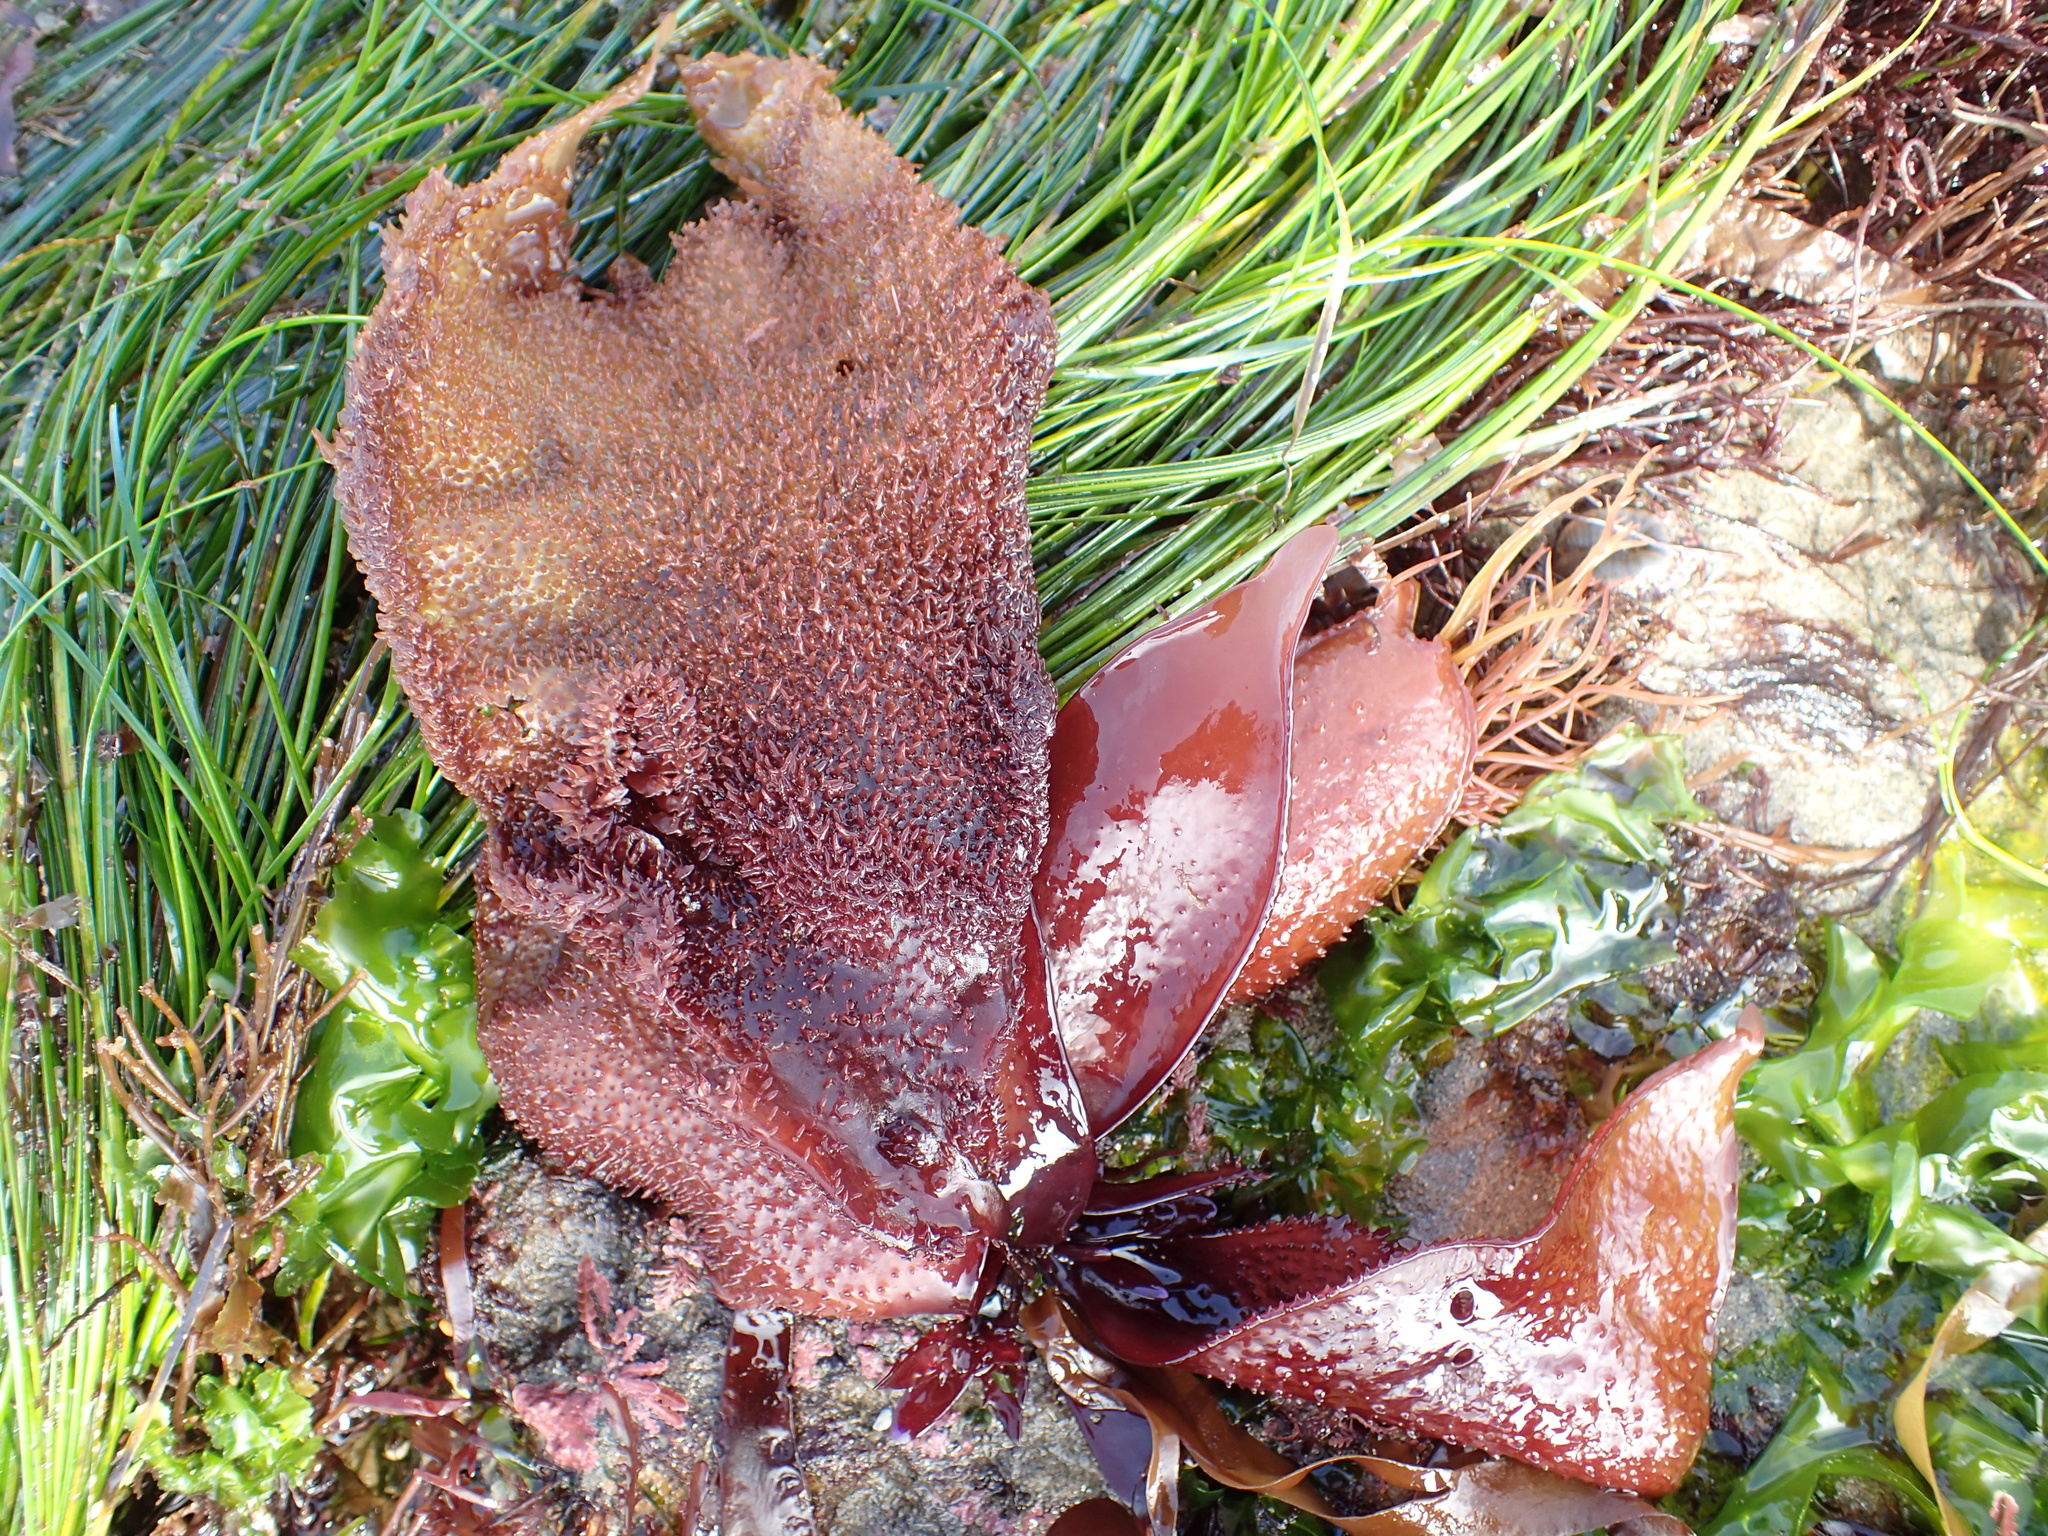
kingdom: Plantae
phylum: Rhodophyta
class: Florideophyceae
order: Gigartinales
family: Gigartinaceae
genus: Chondracanthus
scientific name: Chondracanthus exasperatus
